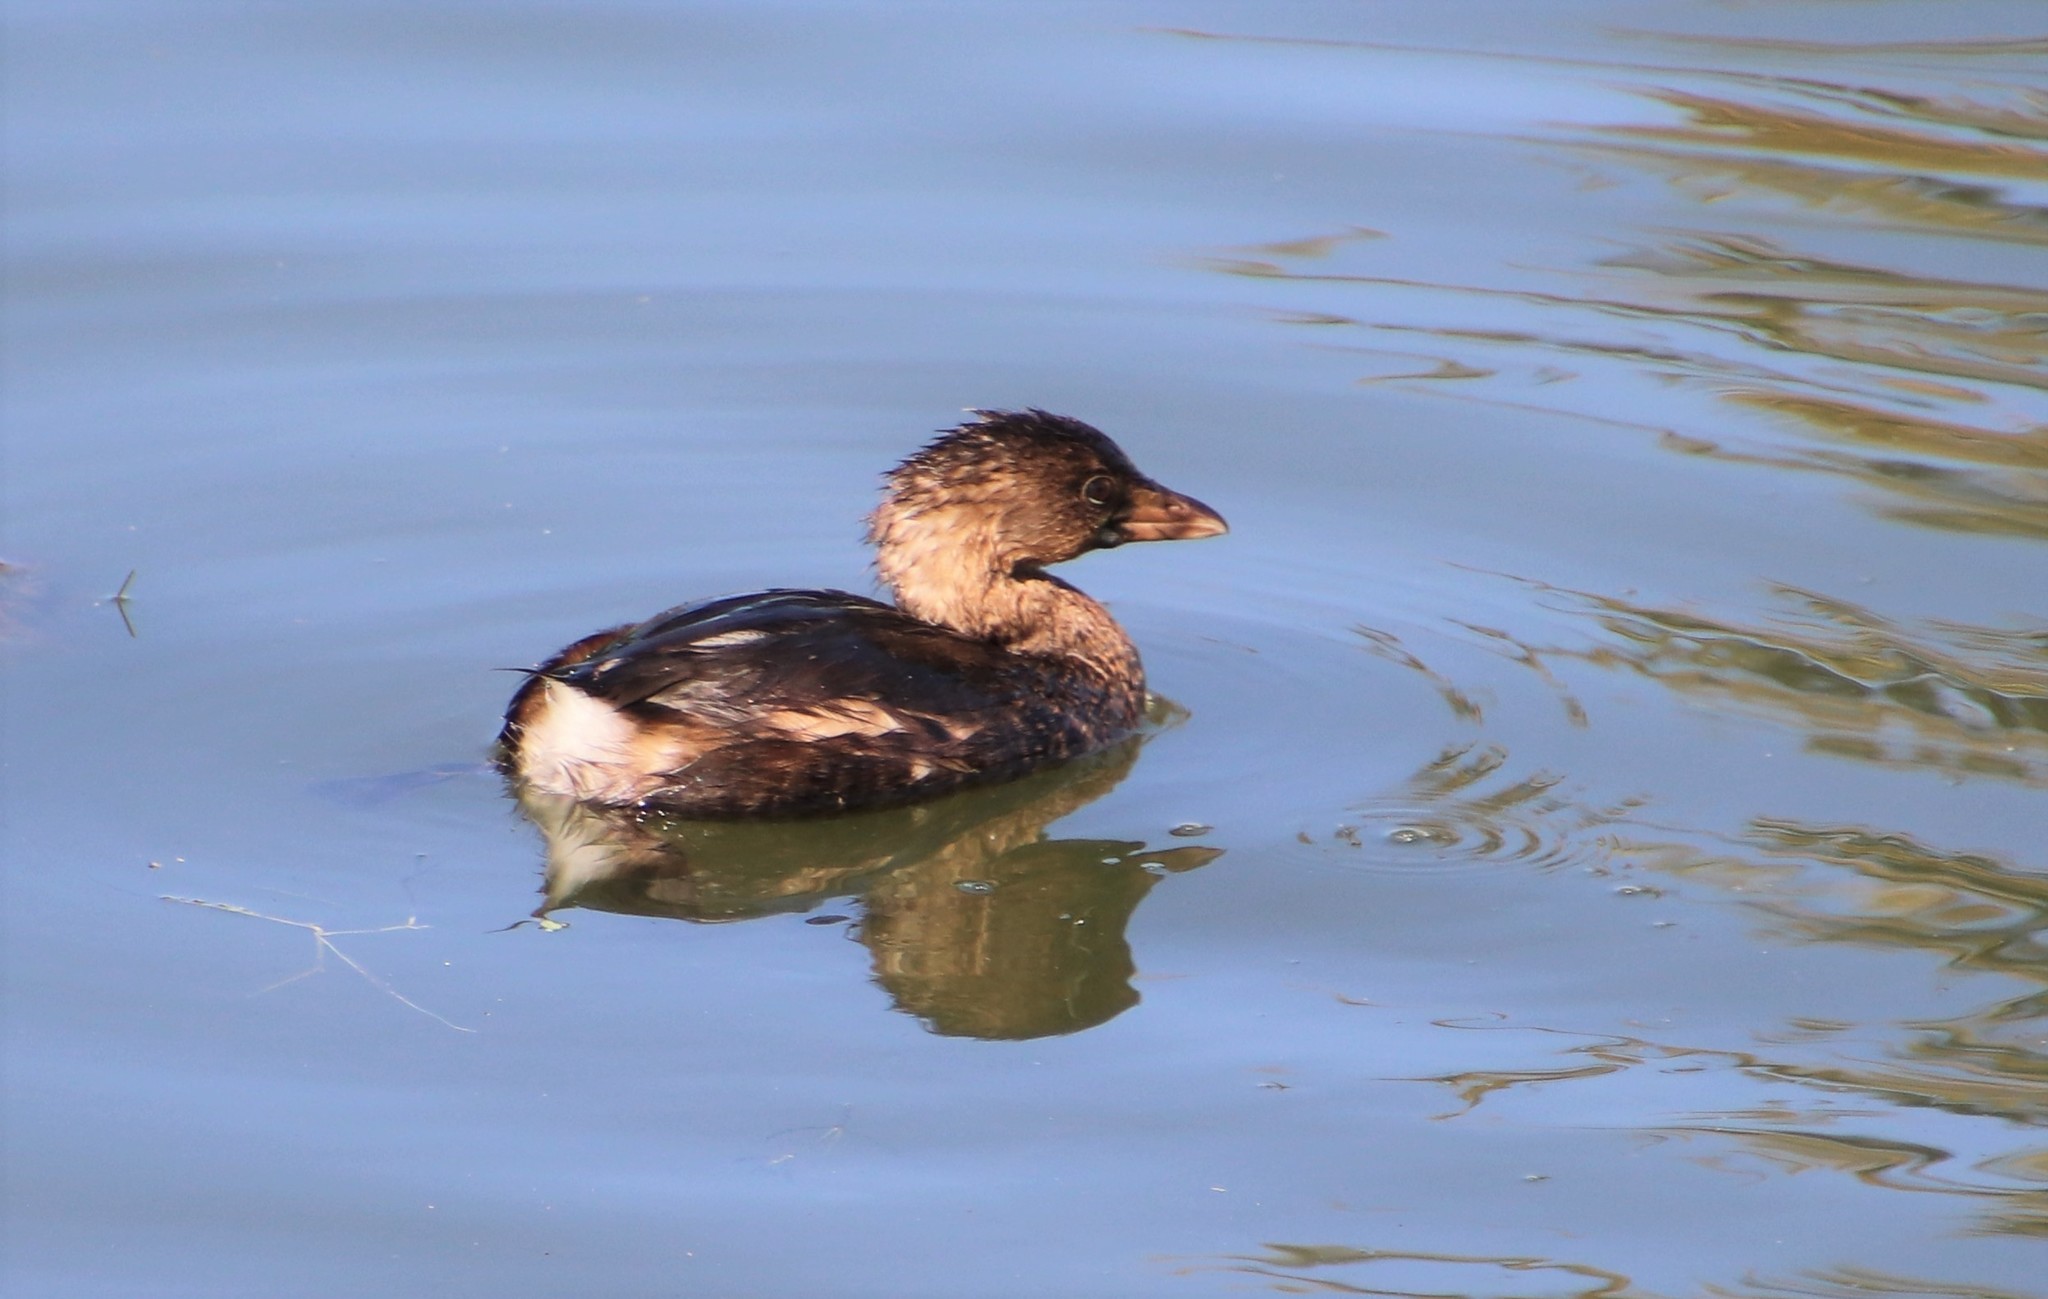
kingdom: Animalia
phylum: Chordata
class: Aves
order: Podicipediformes
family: Podicipedidae
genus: Podilymbus
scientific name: Podilymbus podiceps
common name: Pied-billed grebe
